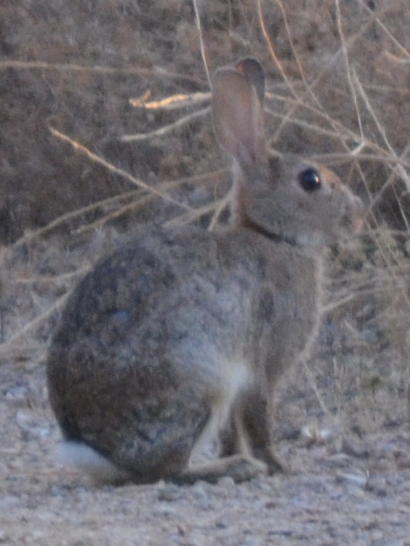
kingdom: Animalia
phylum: Chordata
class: Mammalia
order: Lagomorpha
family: Leporidae
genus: Oryctolagus
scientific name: Oryctolagus cuniculus
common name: European rabbit
